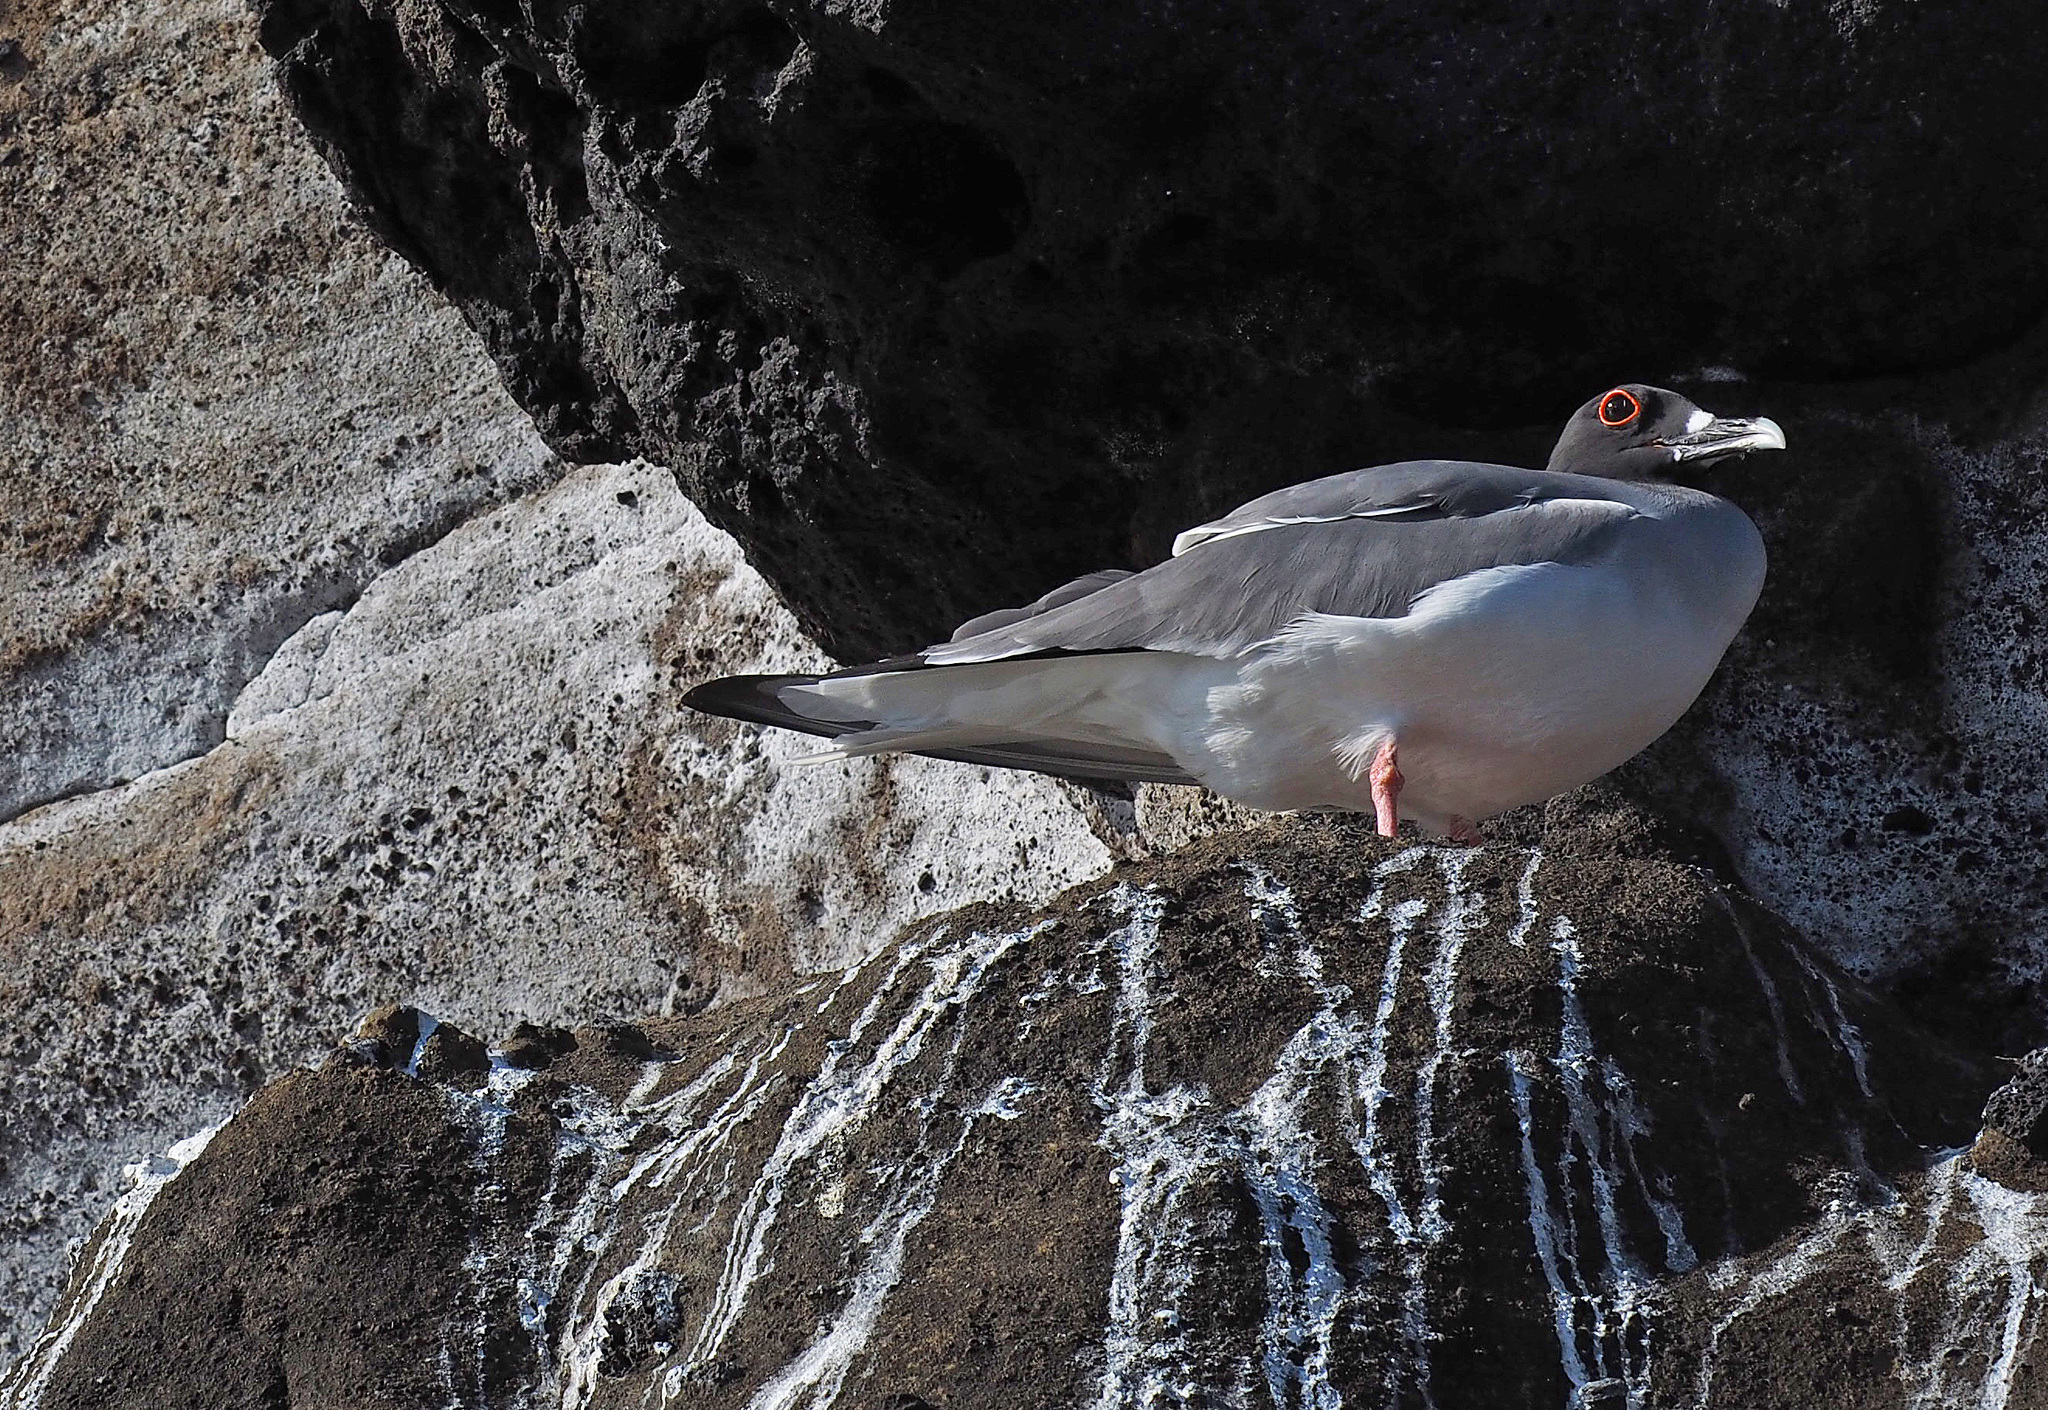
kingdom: Animalia
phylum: Chordata
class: Aves
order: Charadriiformes
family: Laridae
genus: Creagrus
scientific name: Creagrus furcatus
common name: Swallow-tailed gull
